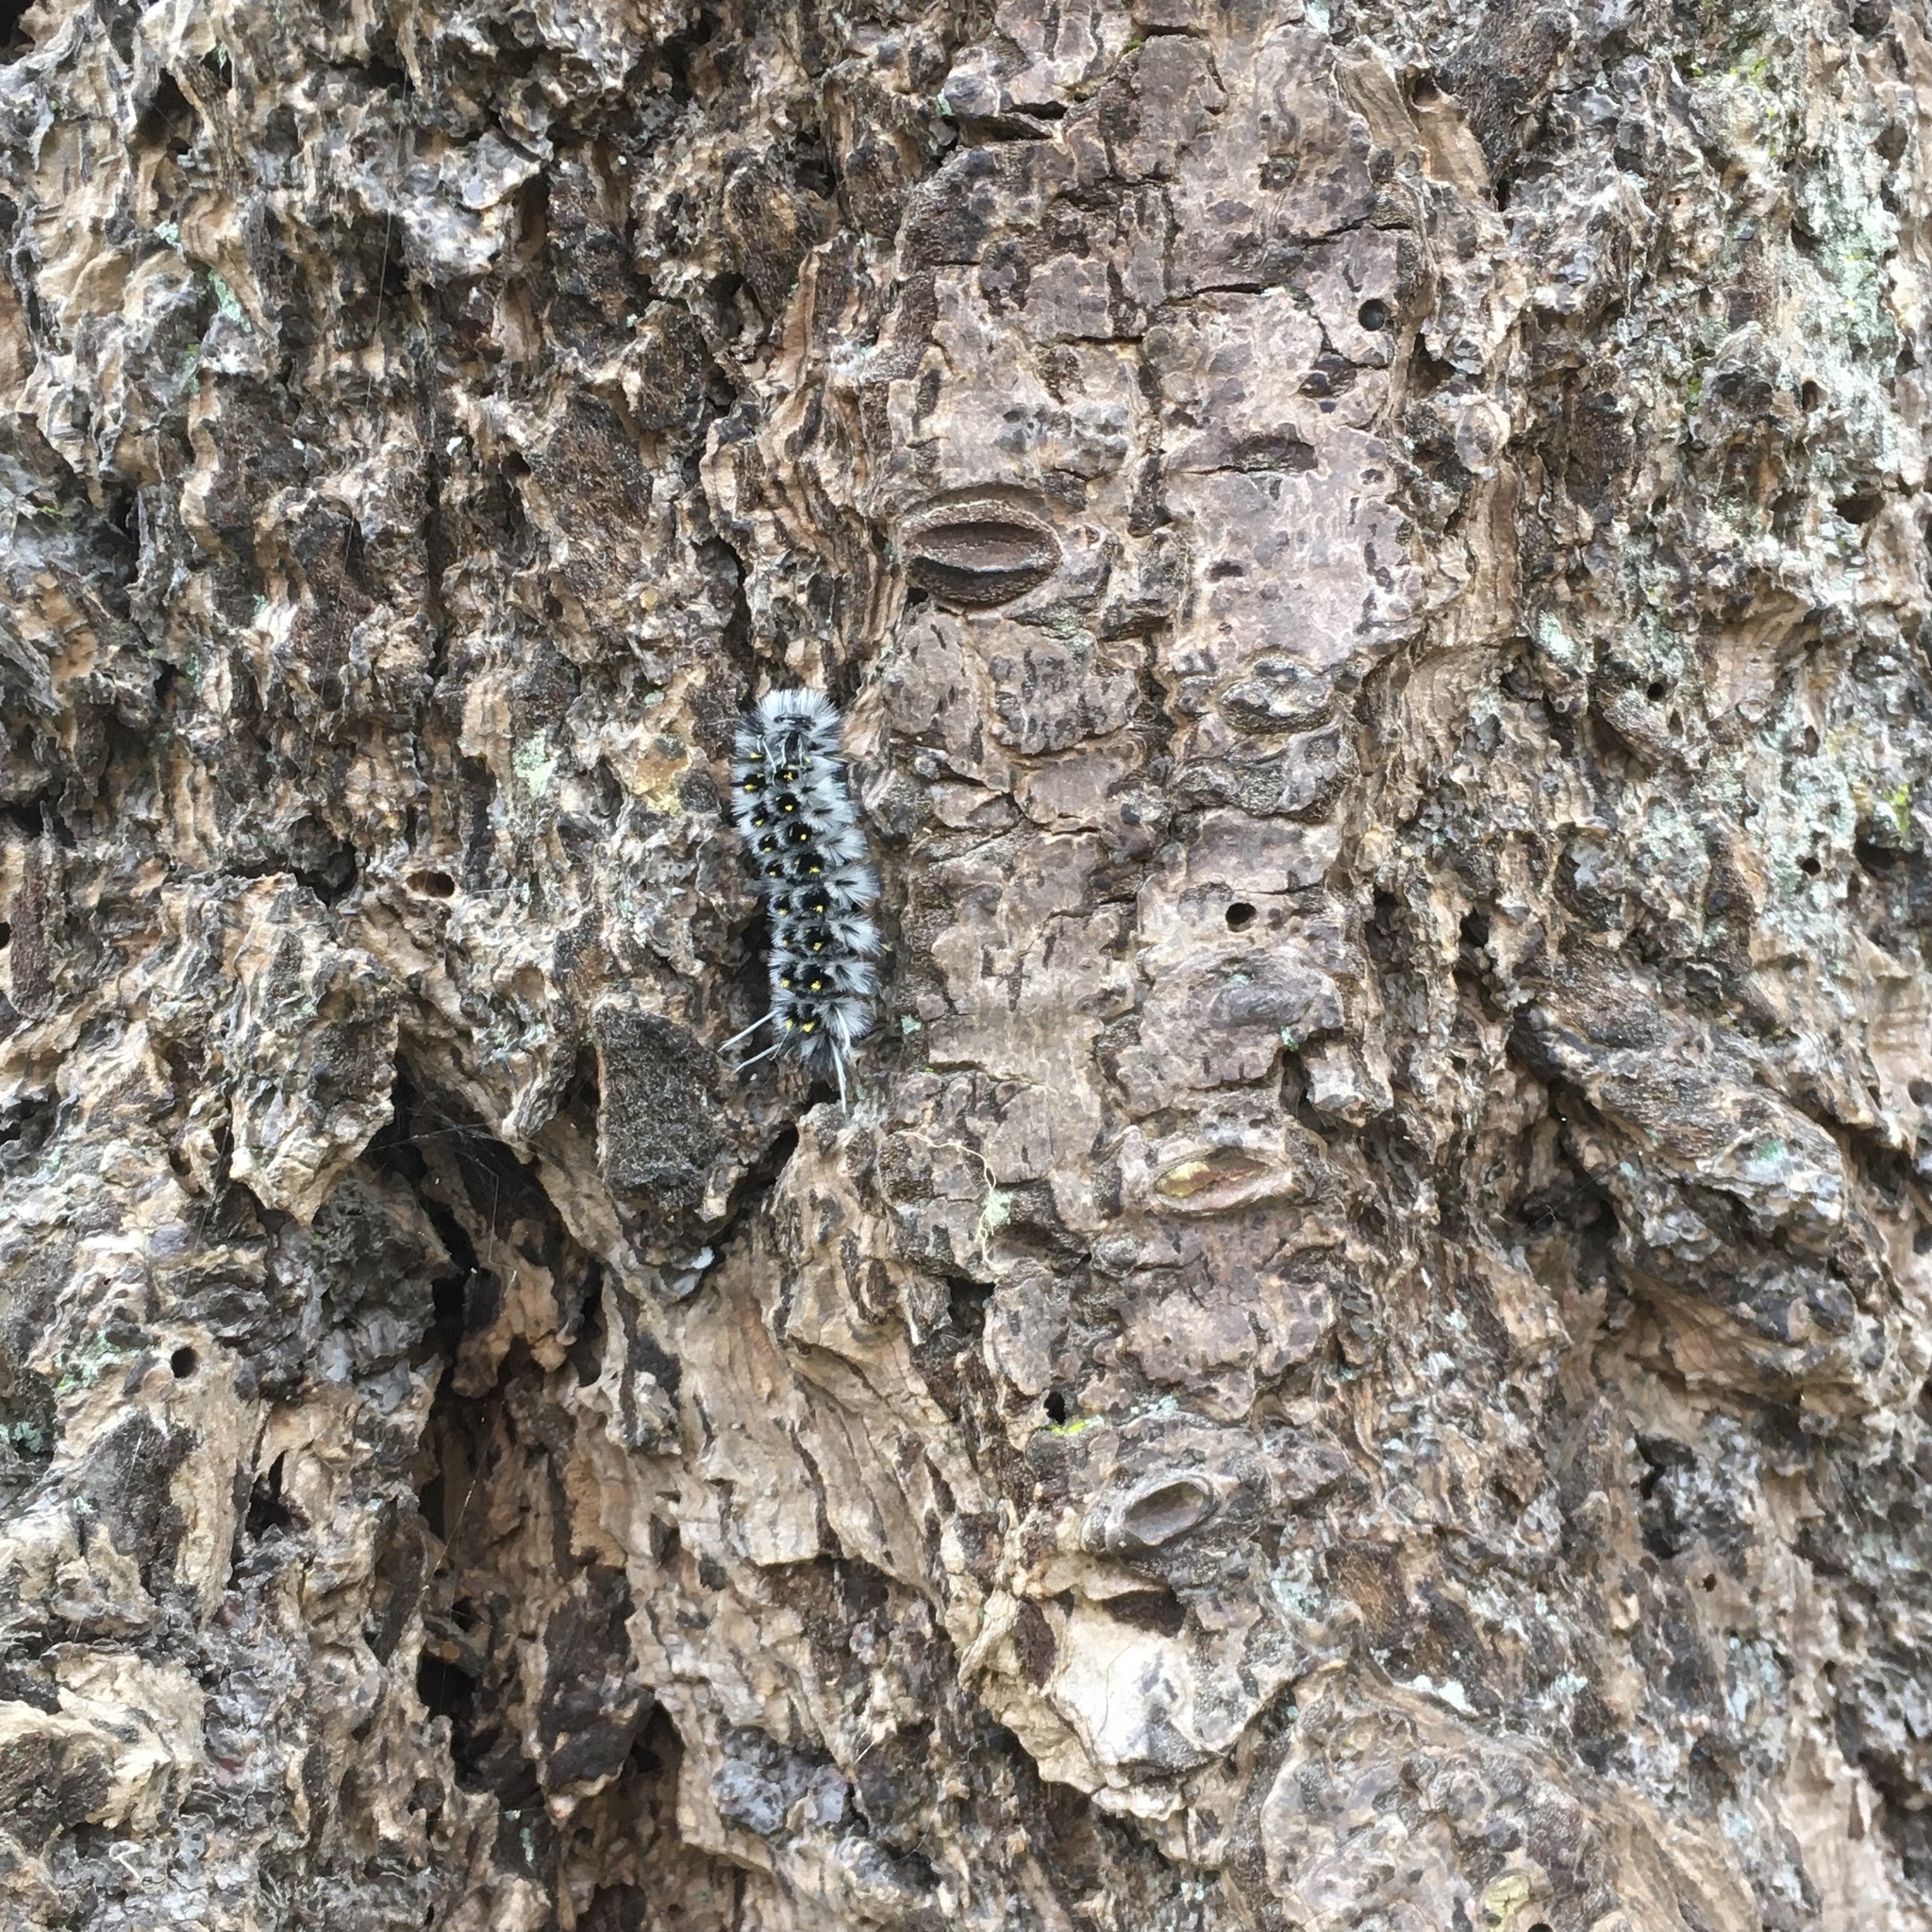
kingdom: Animalia
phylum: Arthropoda
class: Insecta
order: Lepidoptera
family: Erebidae
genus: Lophocampa
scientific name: Lophocampa roseata
